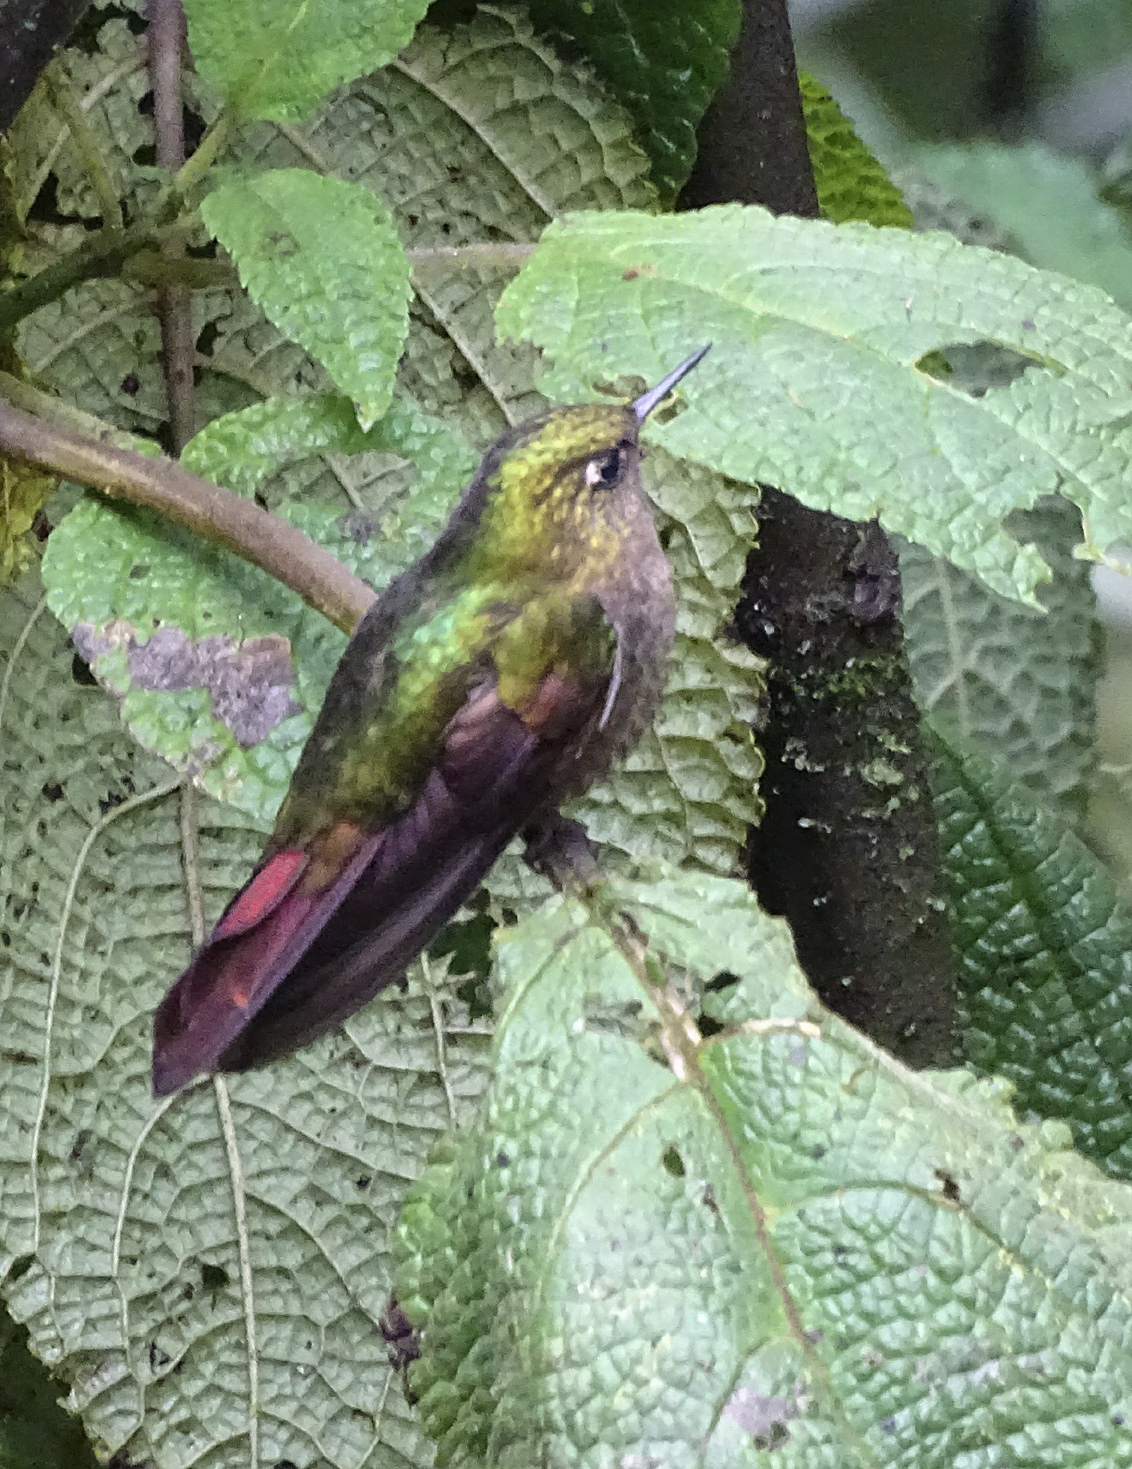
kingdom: Animalia
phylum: Chordata
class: Aves
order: Apodiformes
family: Trochilidae
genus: Metallura
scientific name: Metallura tyrianthina
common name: Tyrian metaltail
